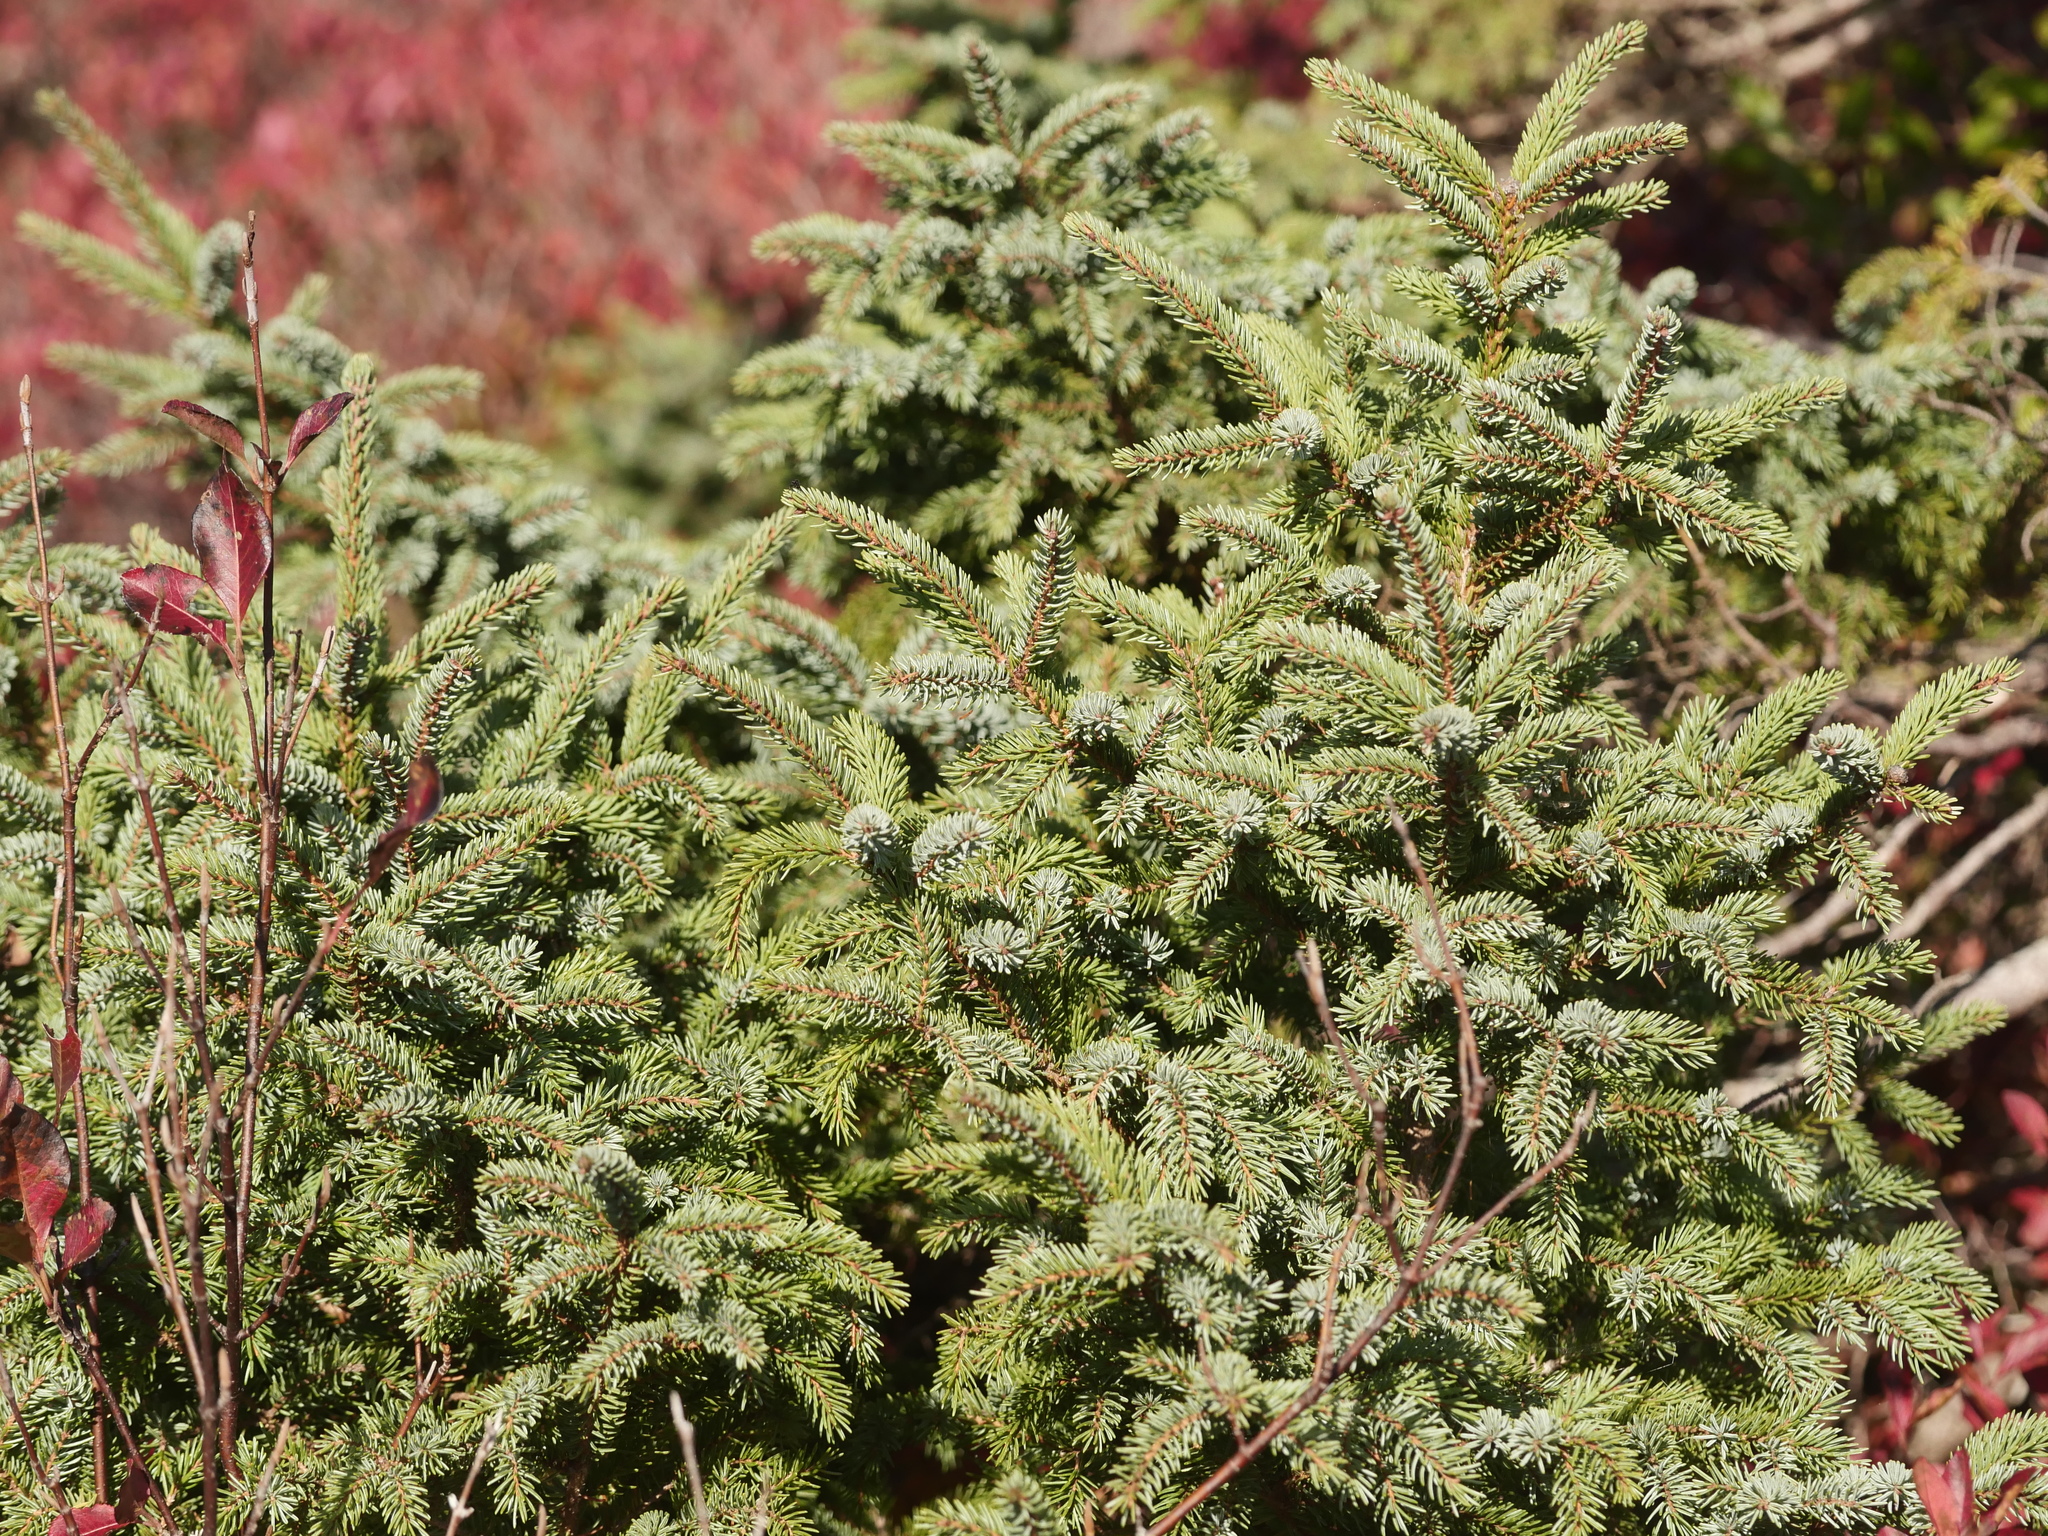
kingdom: Plantae
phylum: Tracheophyta
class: Pinopsida
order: Pinales
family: Pinaceae
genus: Picea
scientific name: Picea mariana
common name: Black spruce
